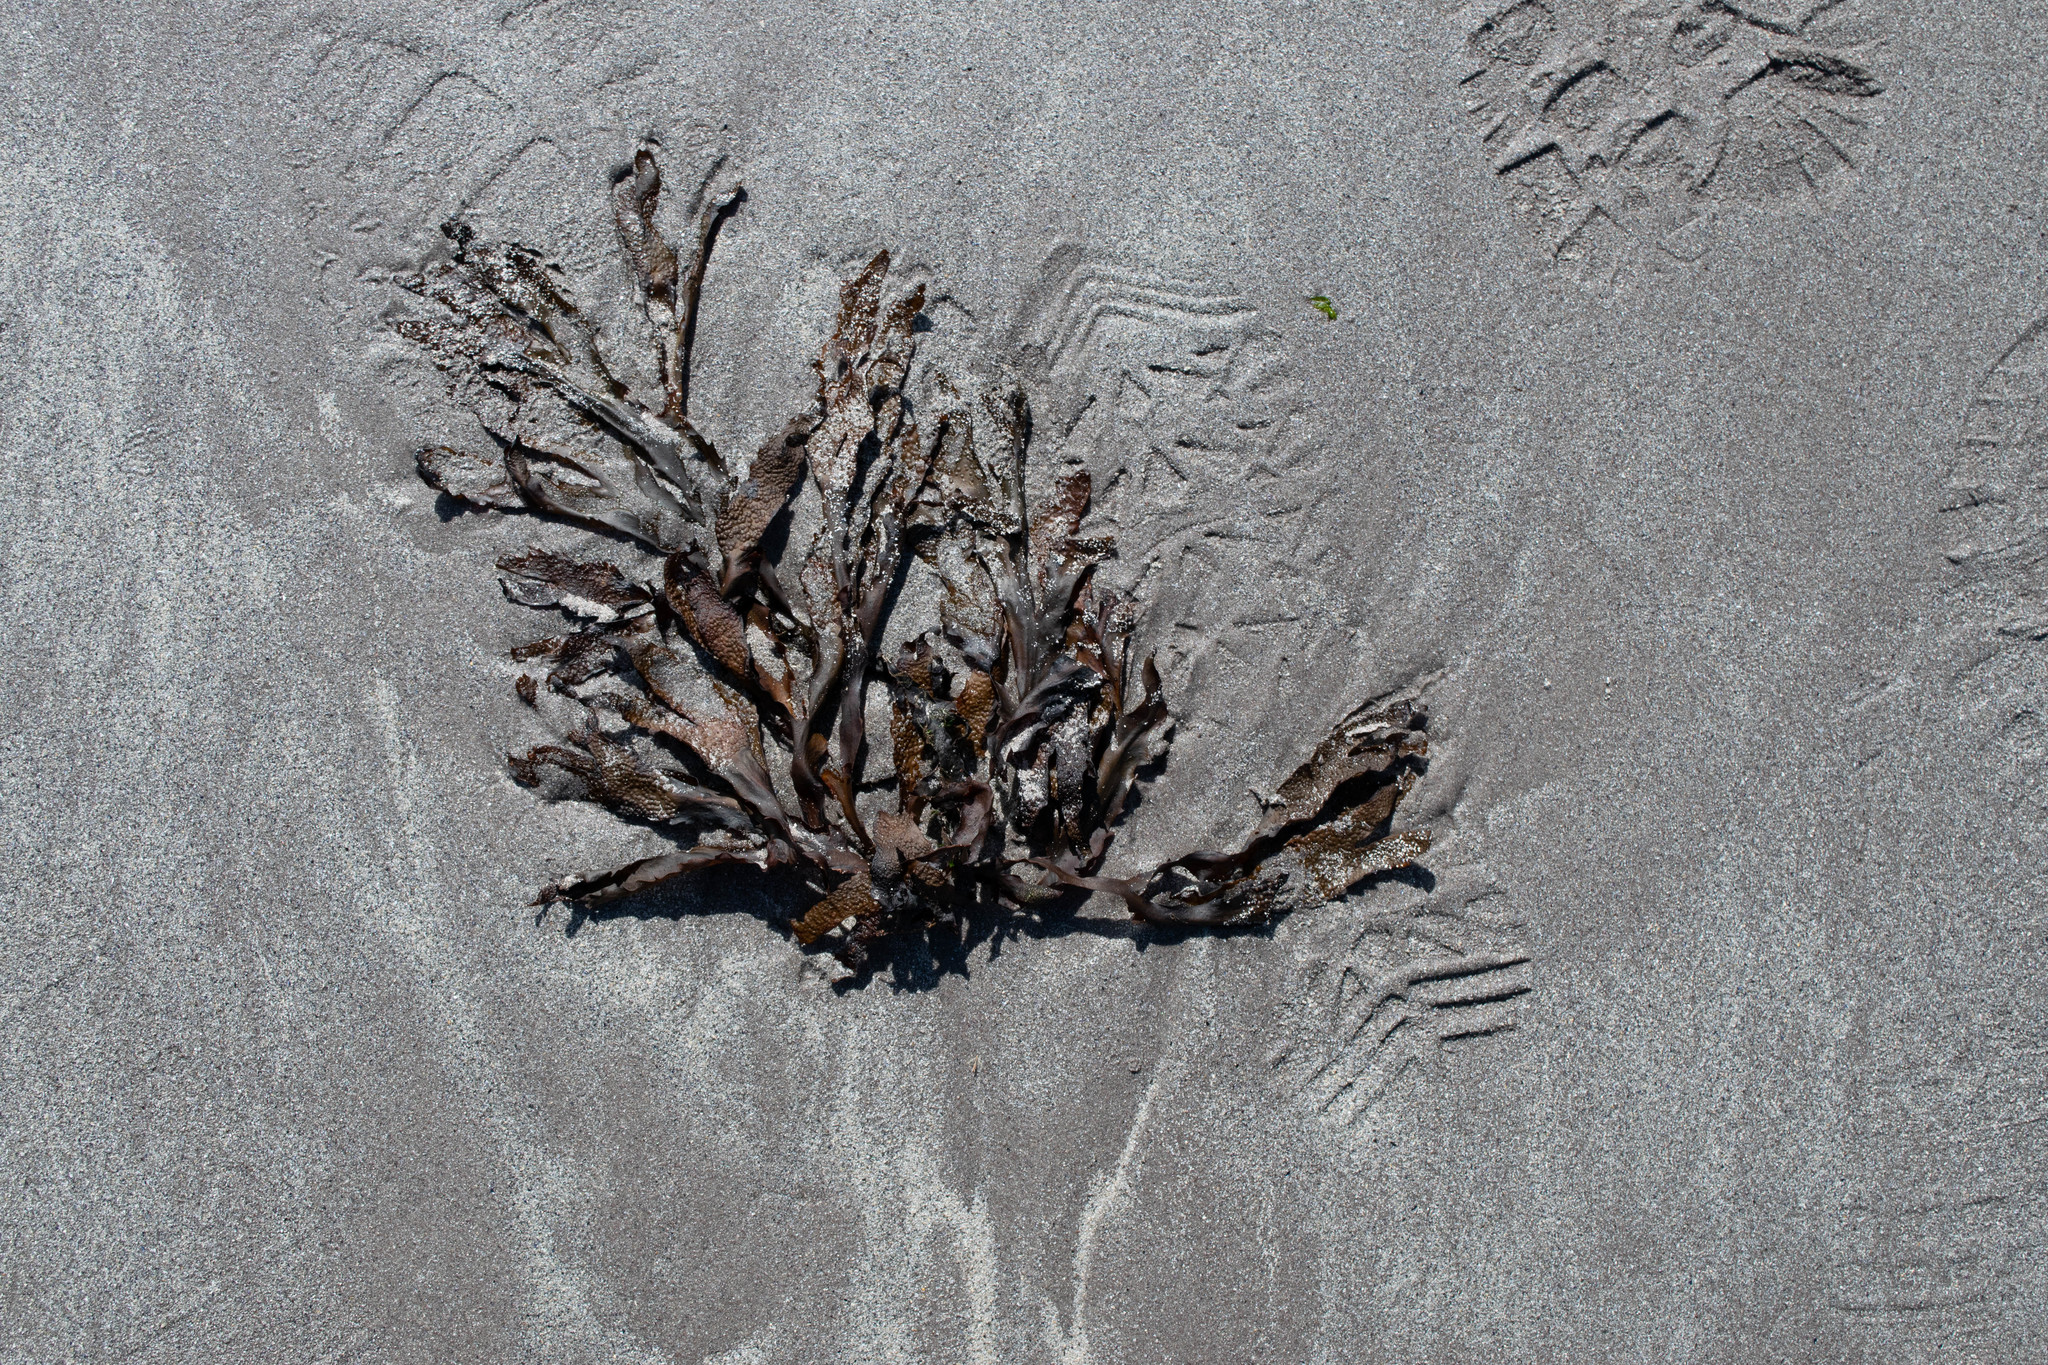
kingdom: Chromista
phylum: Ochrophyta
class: Phaeophyceae
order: Fucales
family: Fucaceae
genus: Fucus
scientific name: Fucus serratus
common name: Toothed wrack
